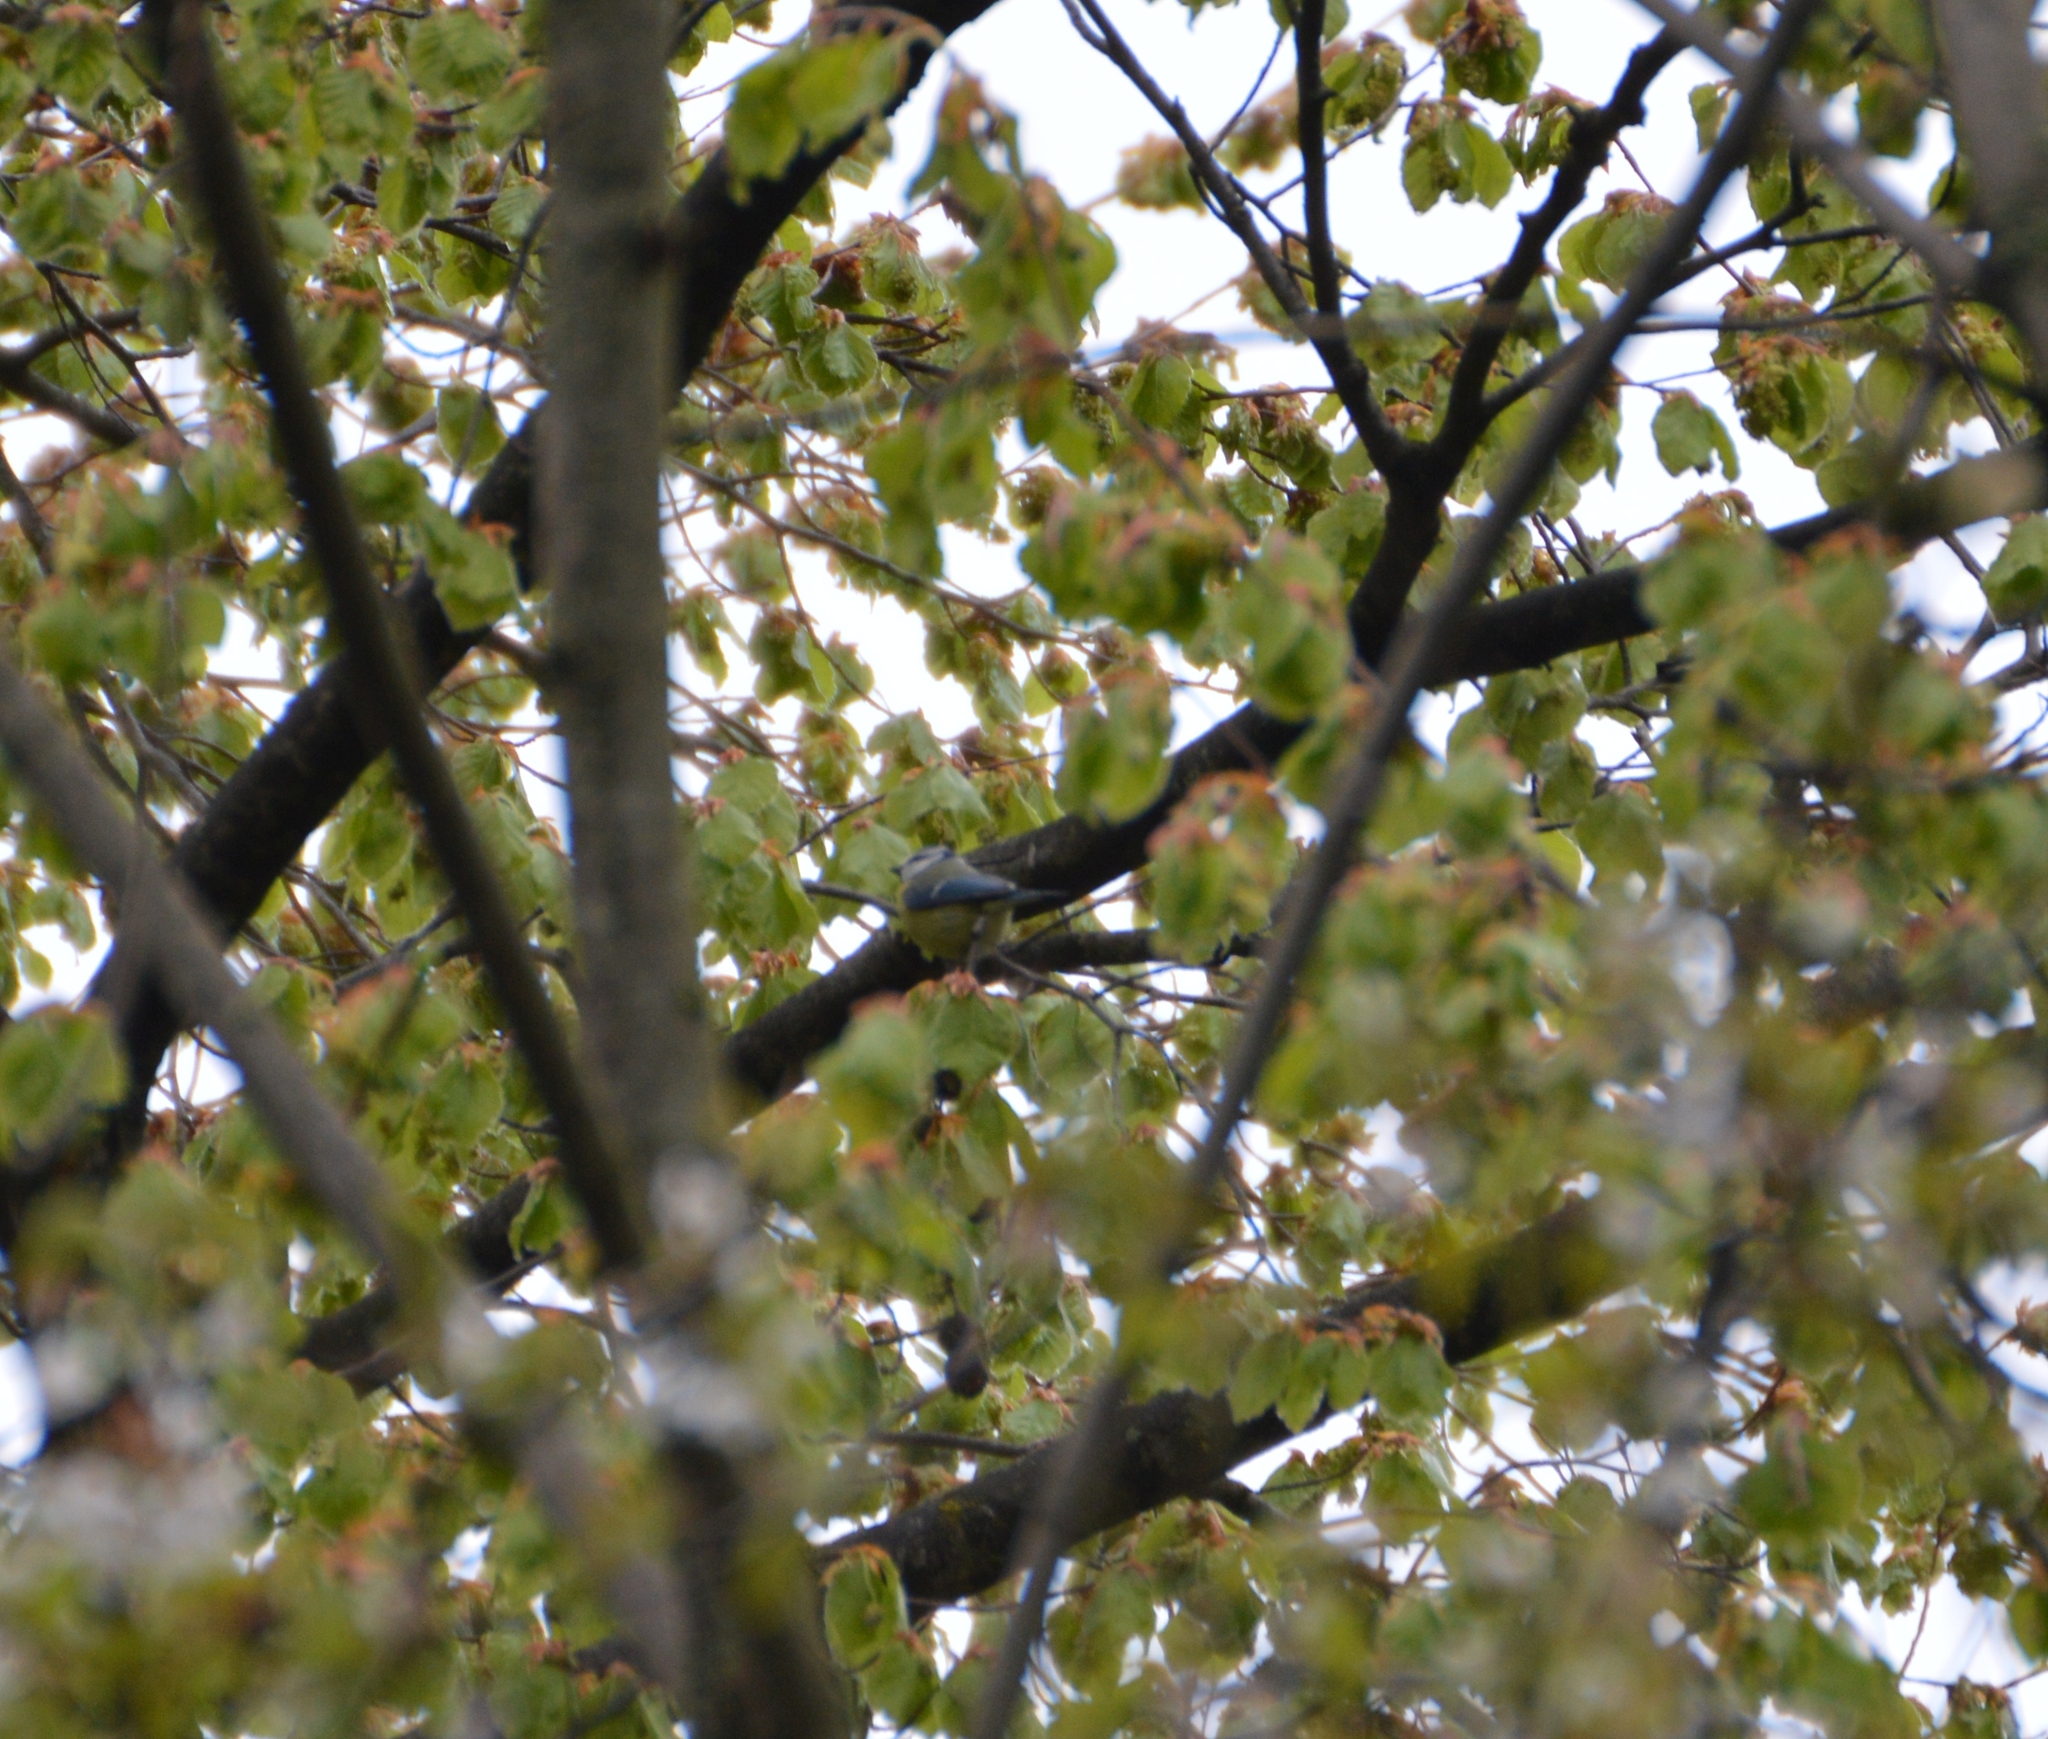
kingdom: Animalia
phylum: Chordata
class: Aves
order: Passeriformes
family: Paridae
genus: Cyanistes
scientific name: Cyanistes caeruleus
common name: Eurasian blue tit
